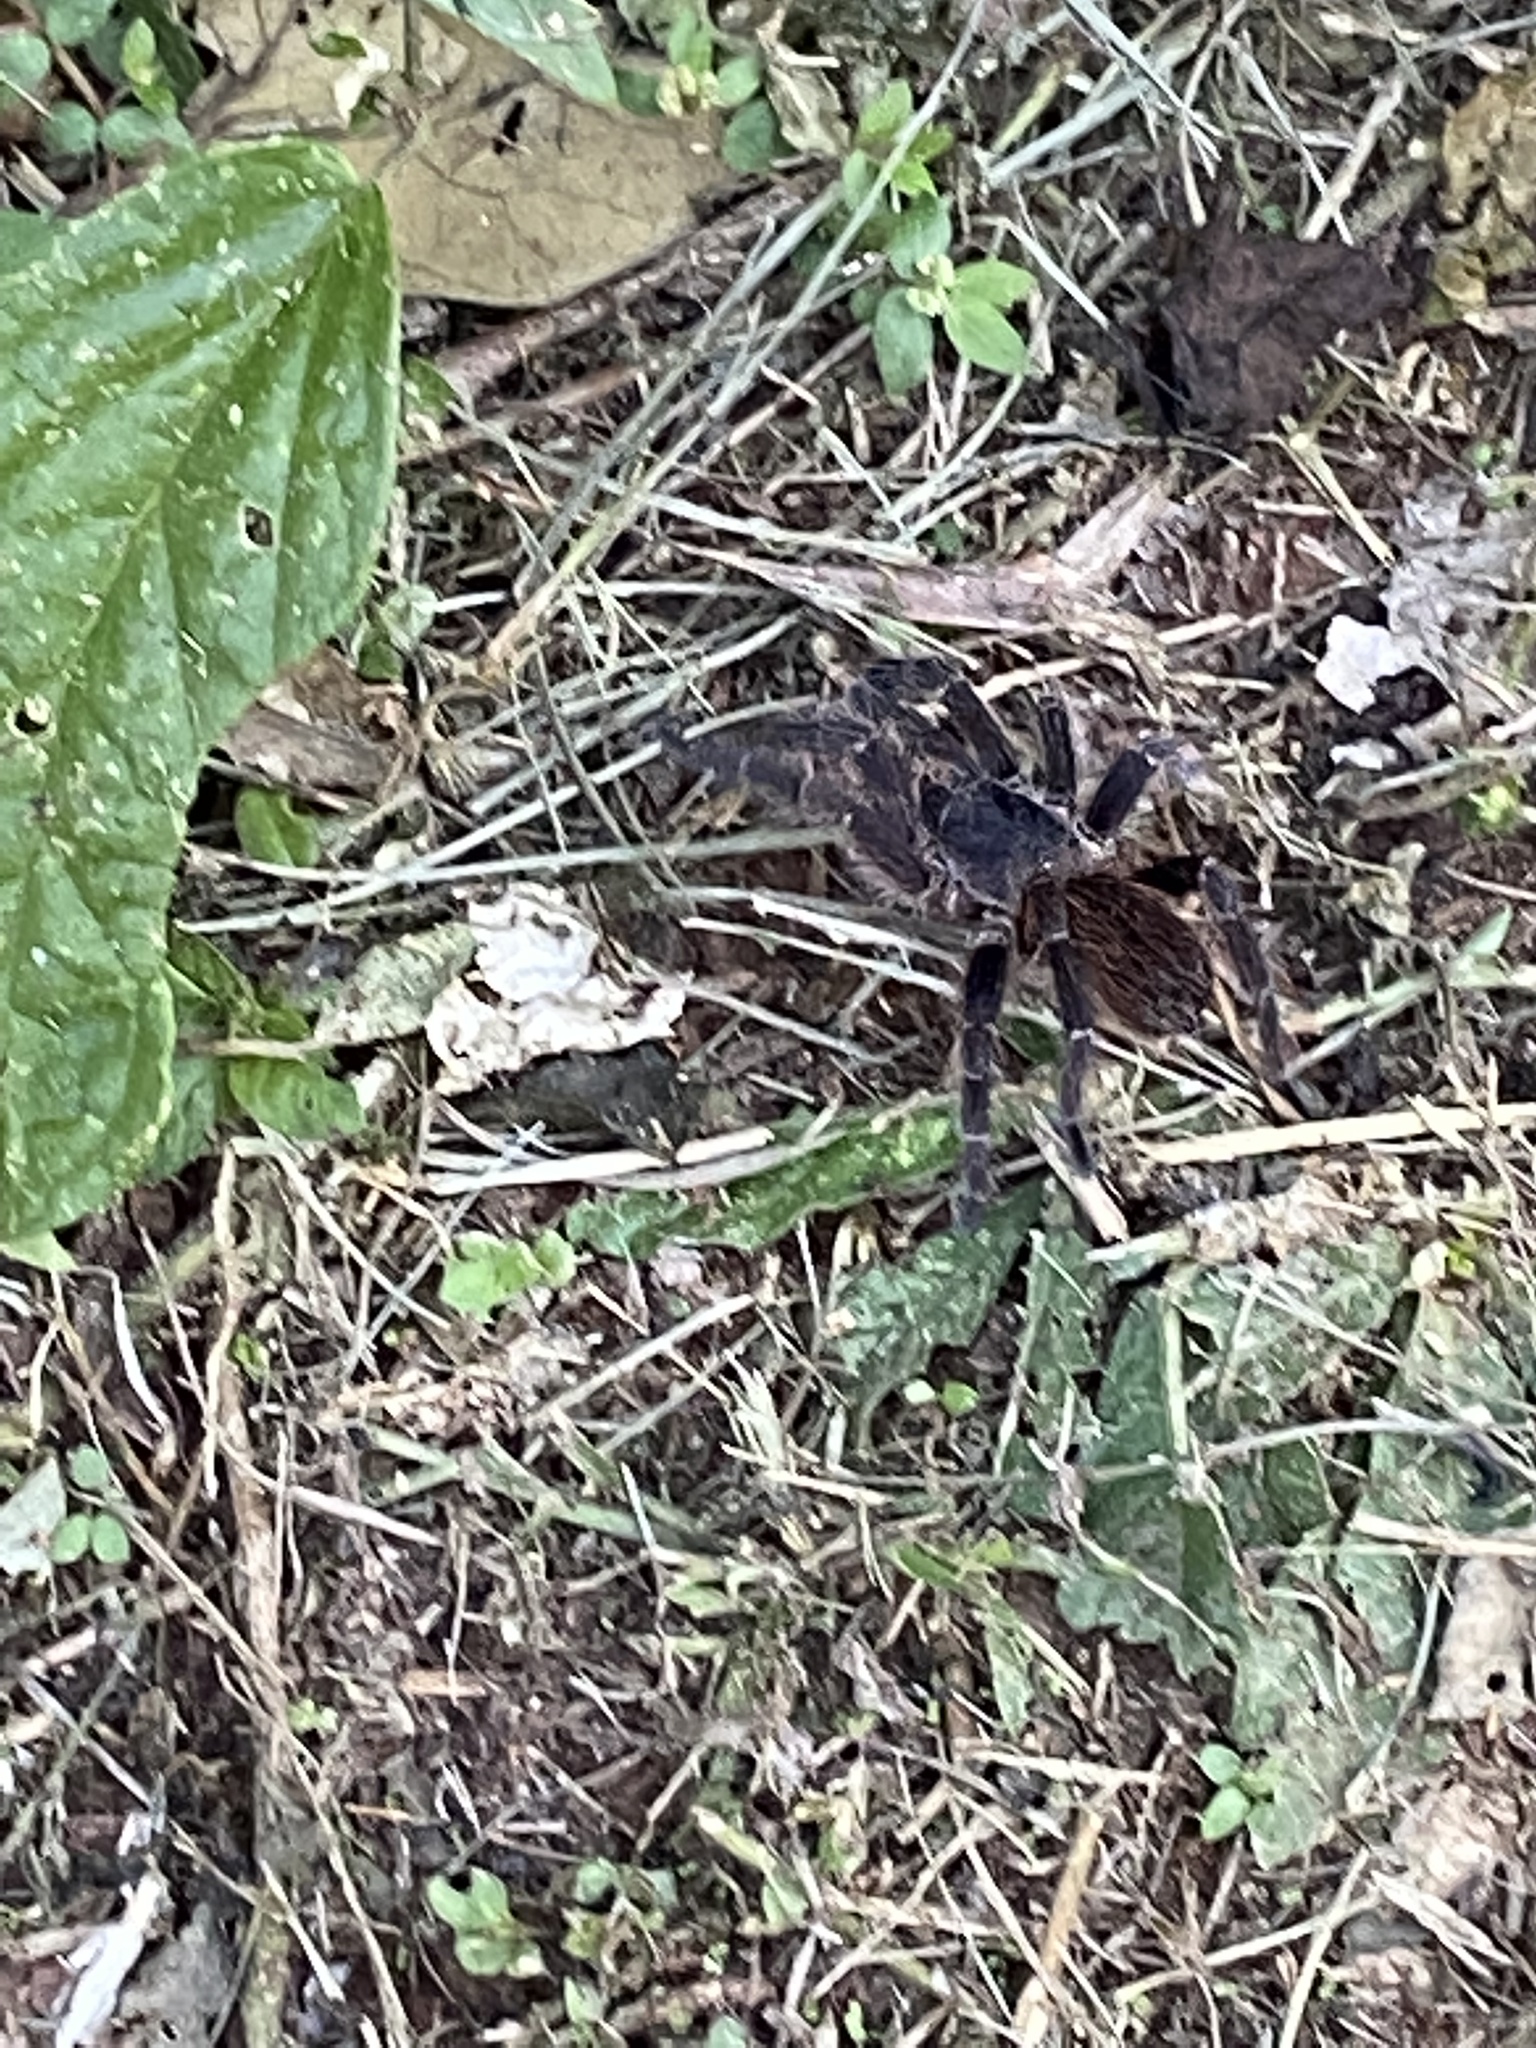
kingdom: Animalia
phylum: Arthropoda
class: Arachnida
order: Araneae
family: Theraphosidae
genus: Pterinopelma
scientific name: Pterinopelma longisternale
